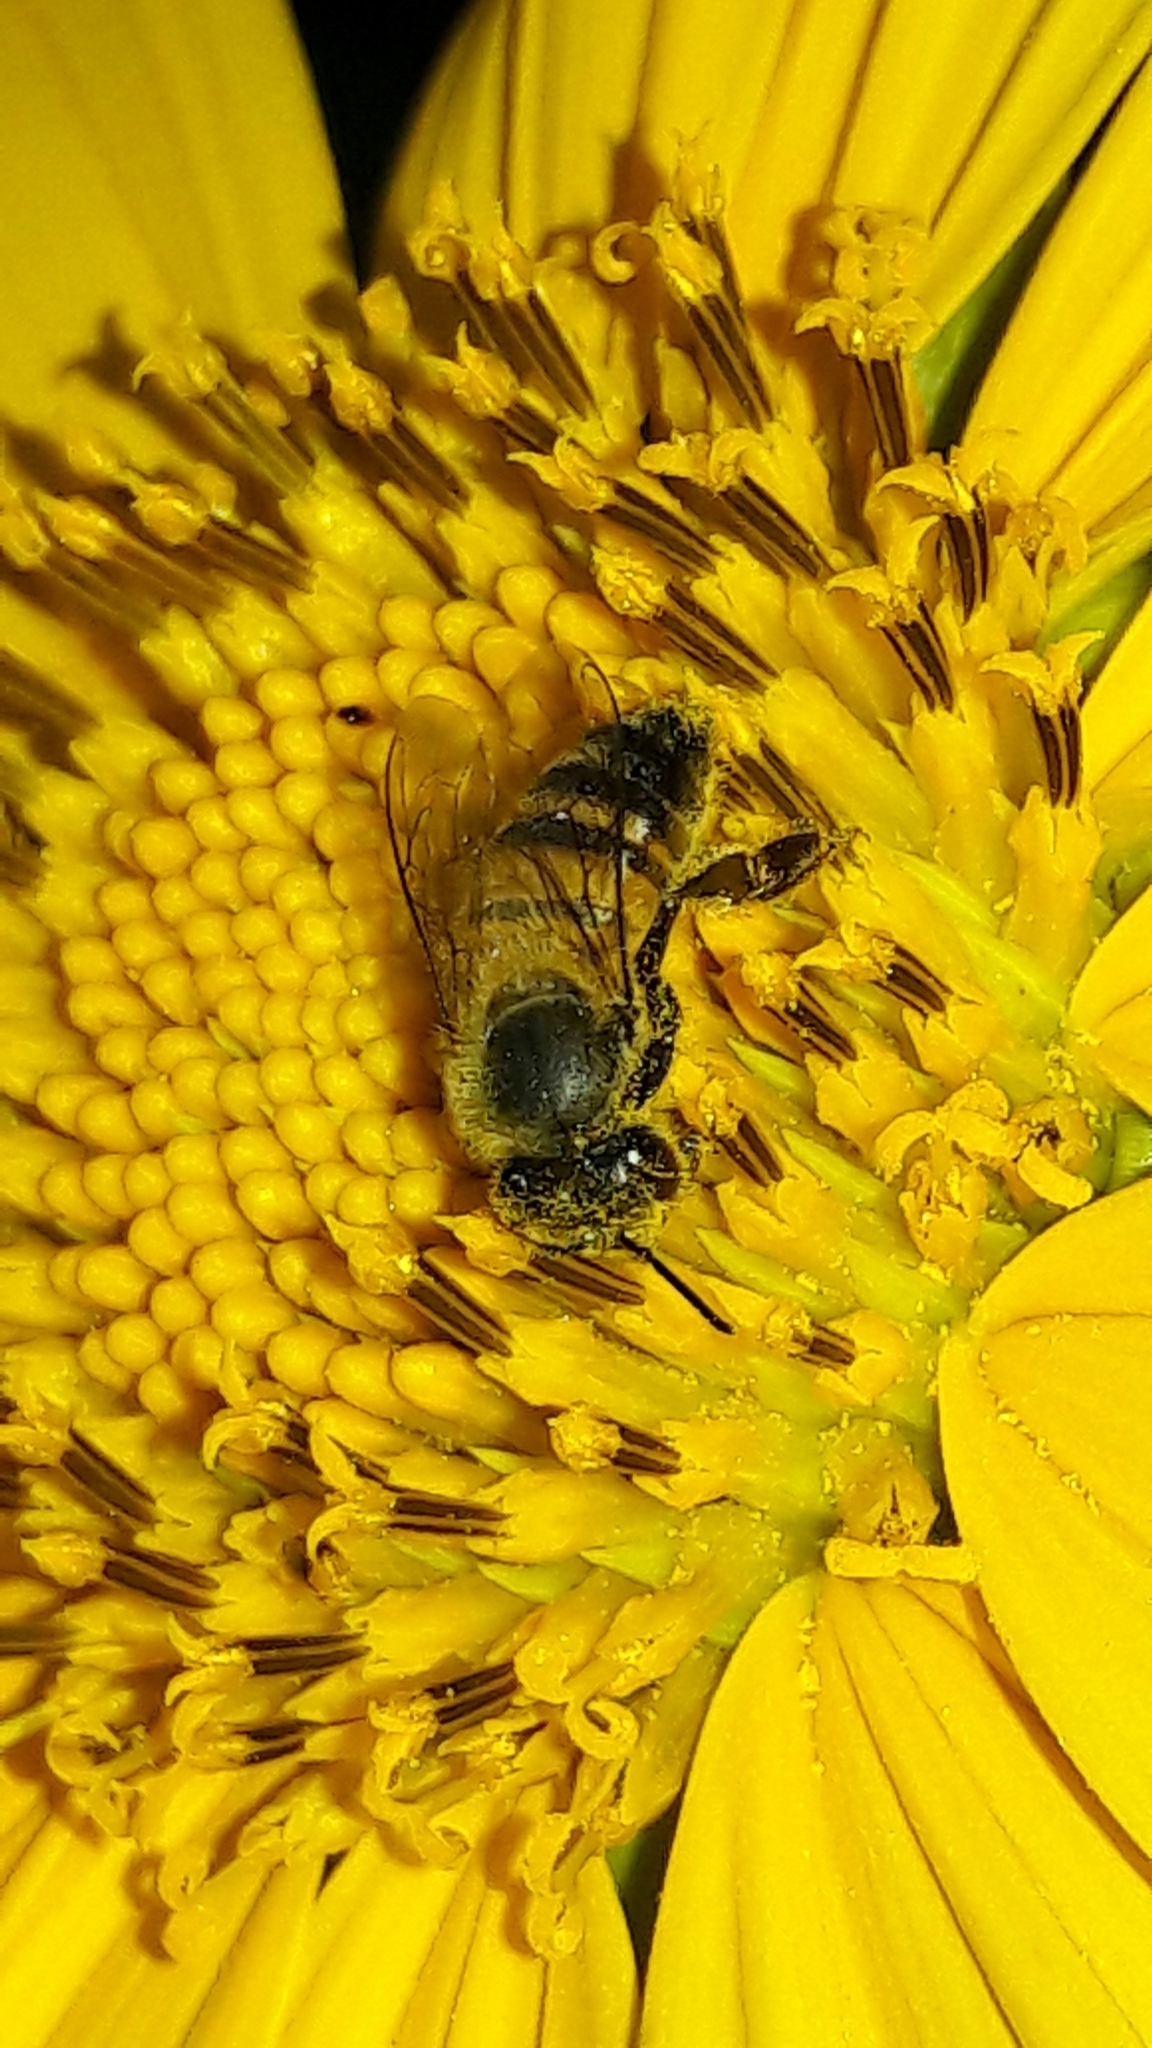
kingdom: Animalia
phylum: Arthropoda
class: Insecta
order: Hymenoptera
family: Apidae
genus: Apis
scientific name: Apis mellifera
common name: Honey bee
